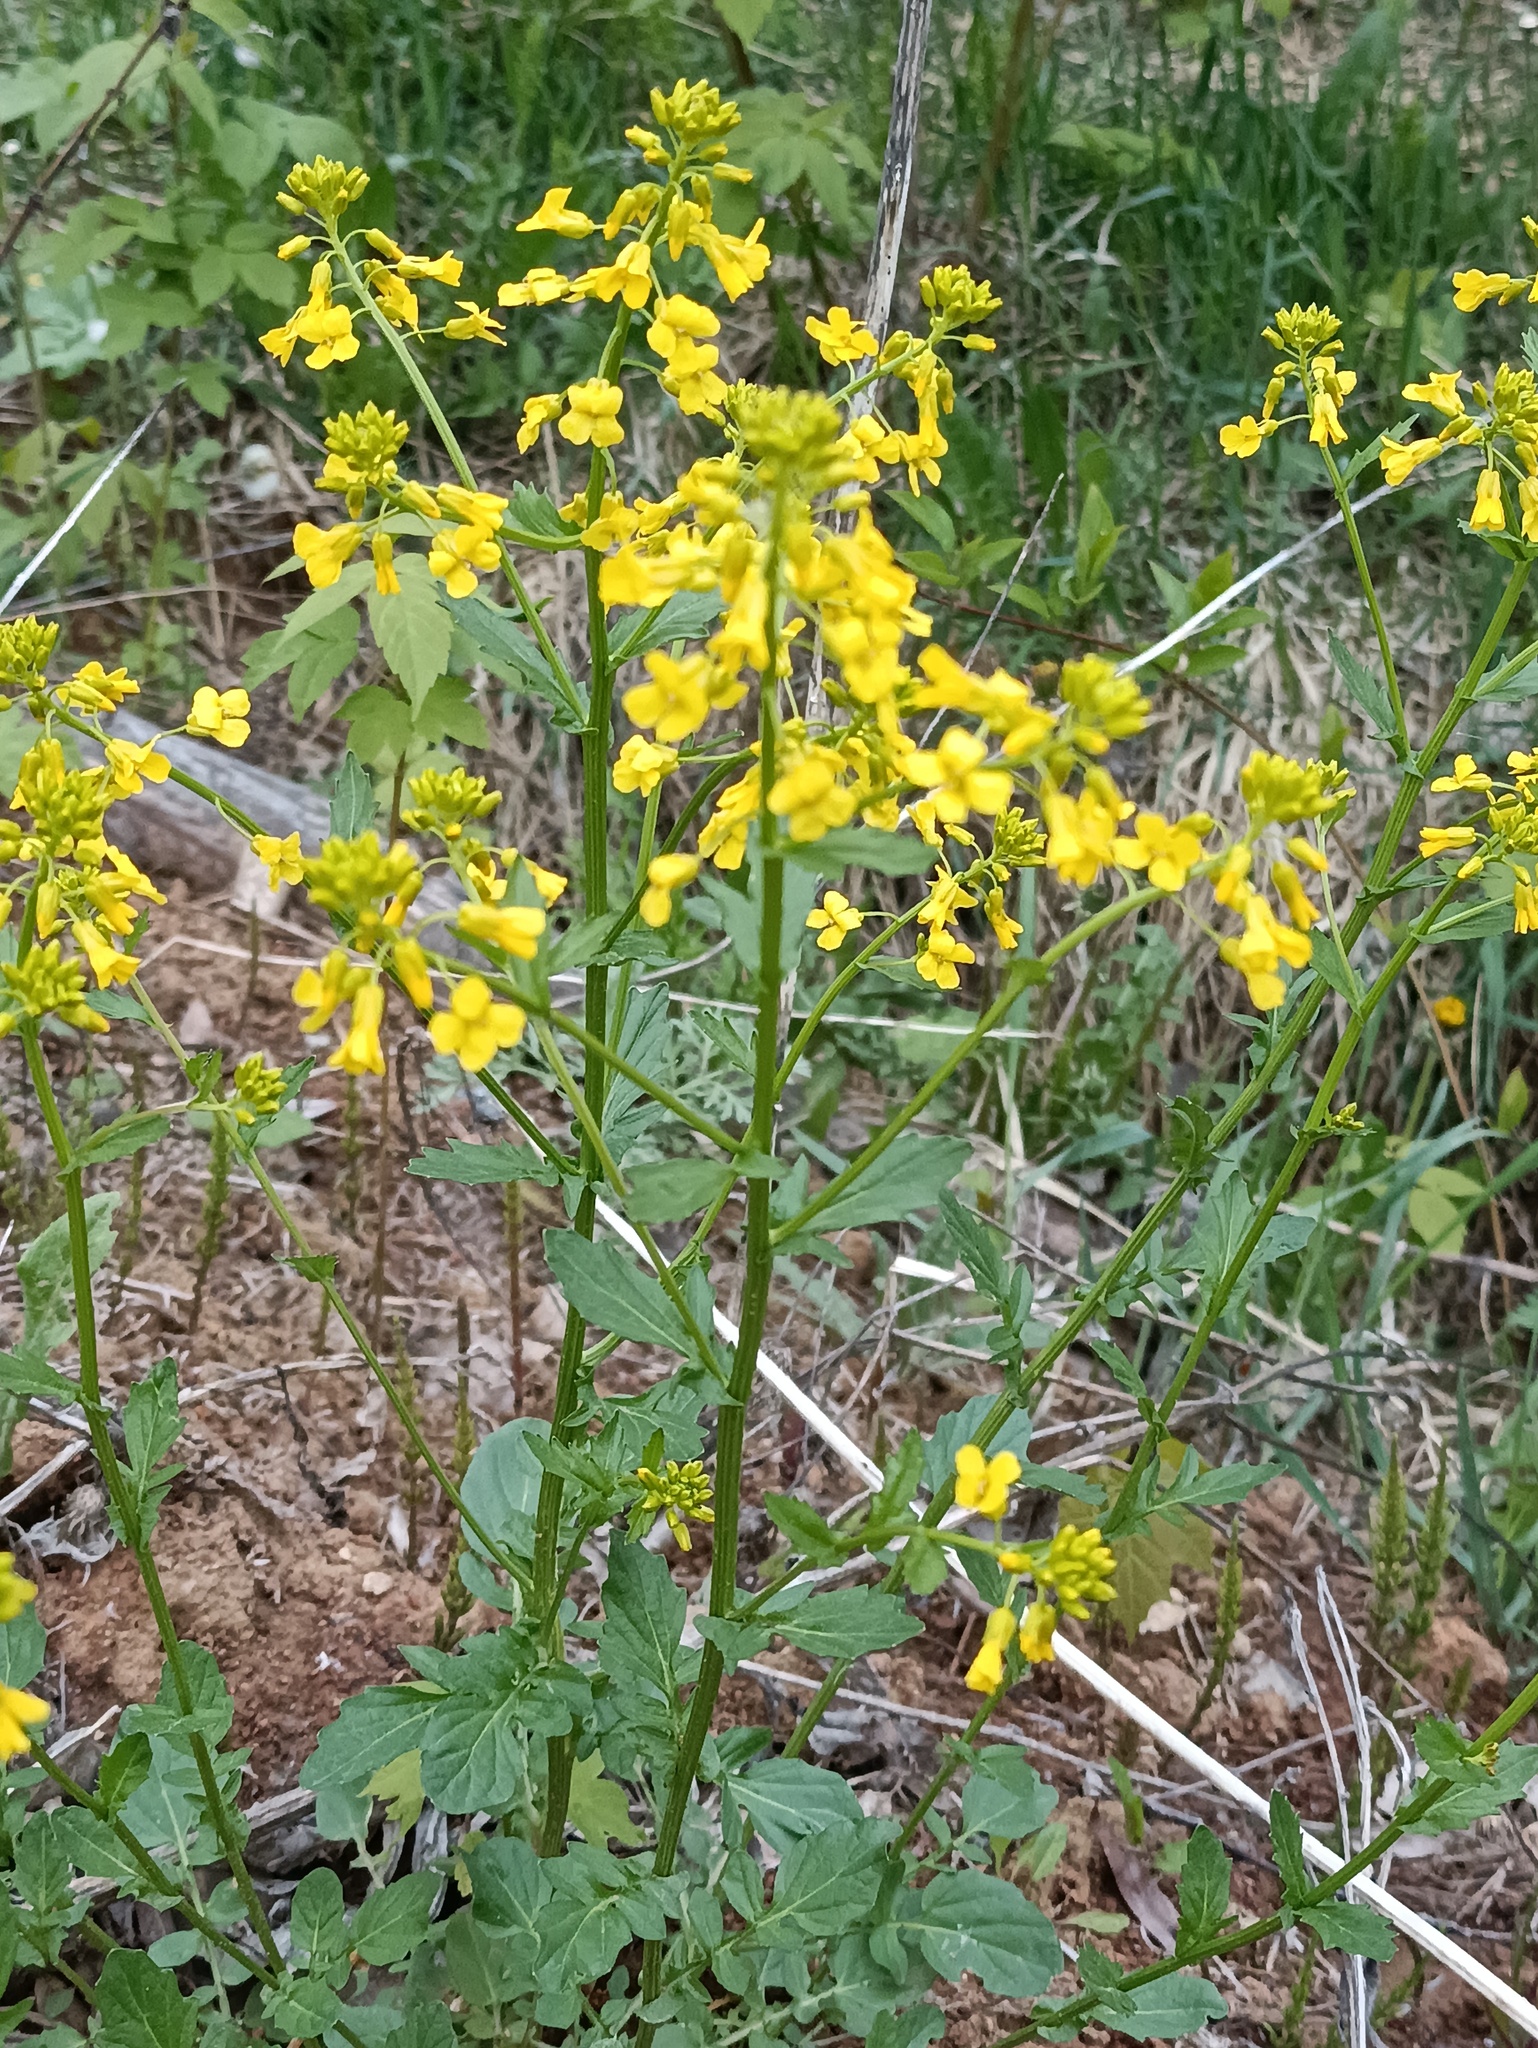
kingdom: Plantae
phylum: Tracheophyta
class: Magnoliopsida
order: Brassicales
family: Brassicaceae
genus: Barbarea
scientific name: Barbarea vulgaris
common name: Cressy-greens
